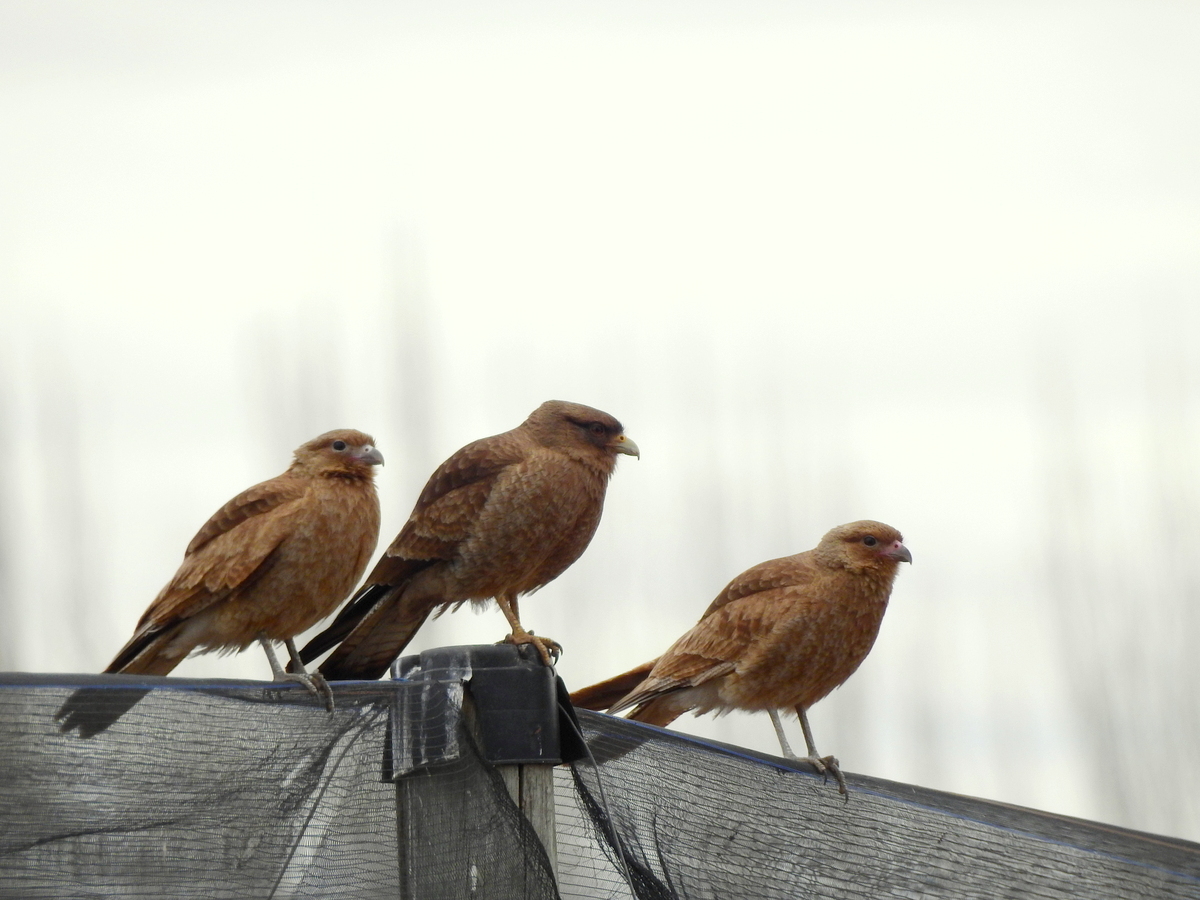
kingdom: Animalia
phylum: Chordata
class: Aves
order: Falconiformes
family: Falconidae
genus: Daptrius
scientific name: Daptrius
